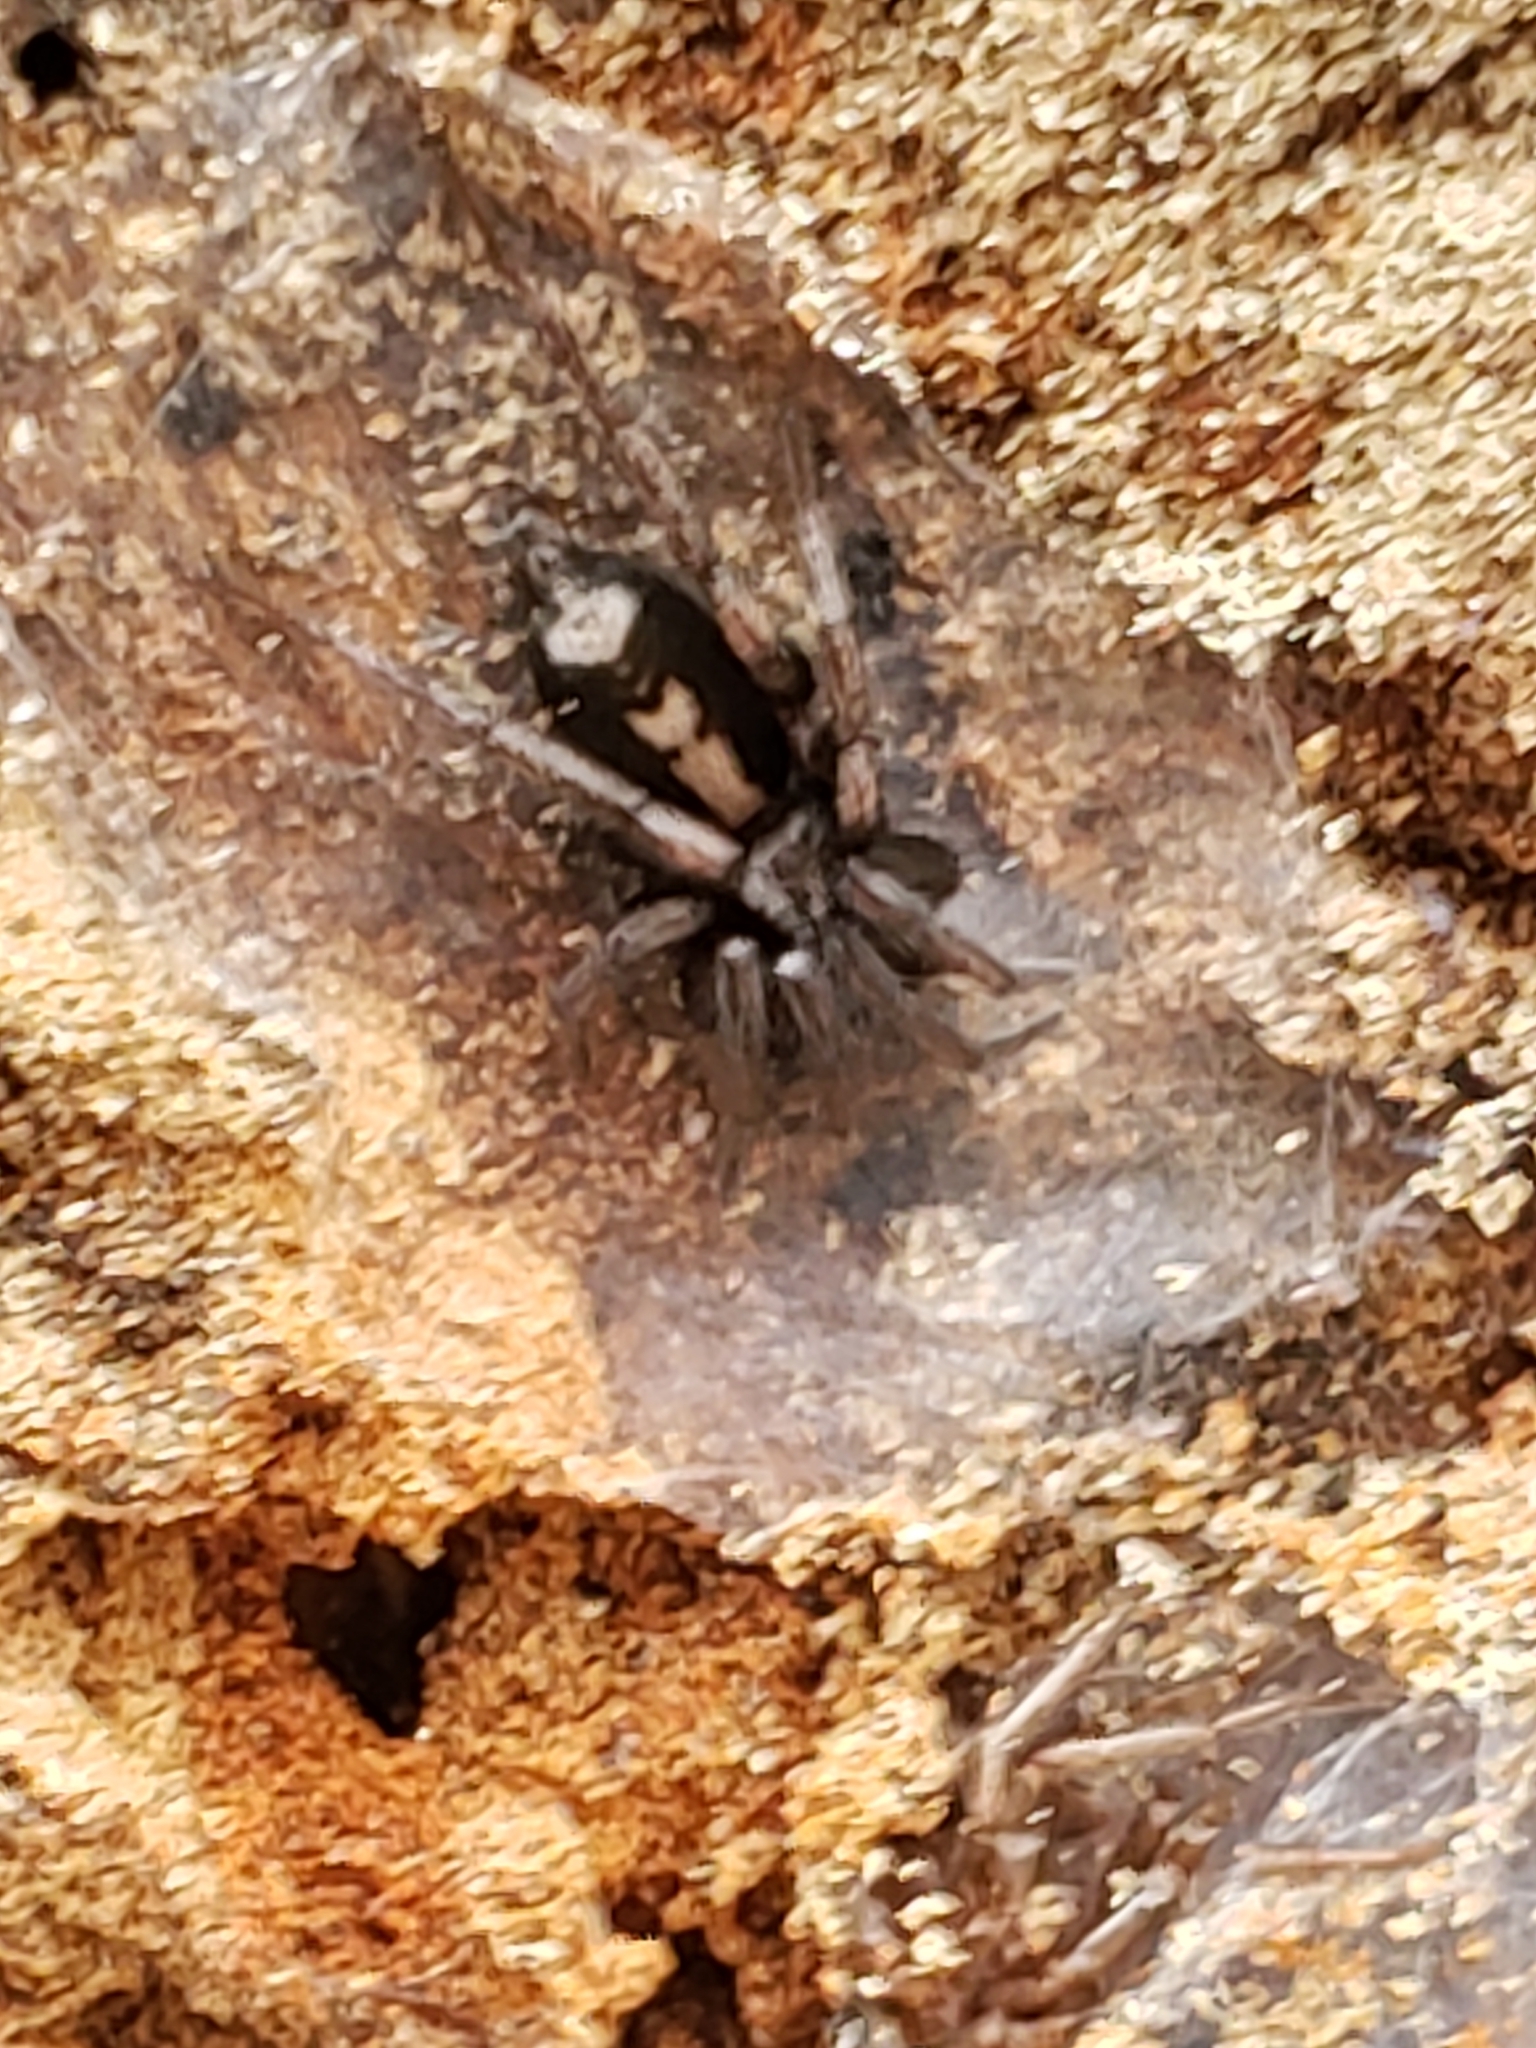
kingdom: Animalia
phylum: Arthropoda
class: Arachnida
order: Araneae
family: Gnaphosidae
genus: Herpyllus
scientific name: Herpyllus ecclesiasticus
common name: Eastern parson spider
